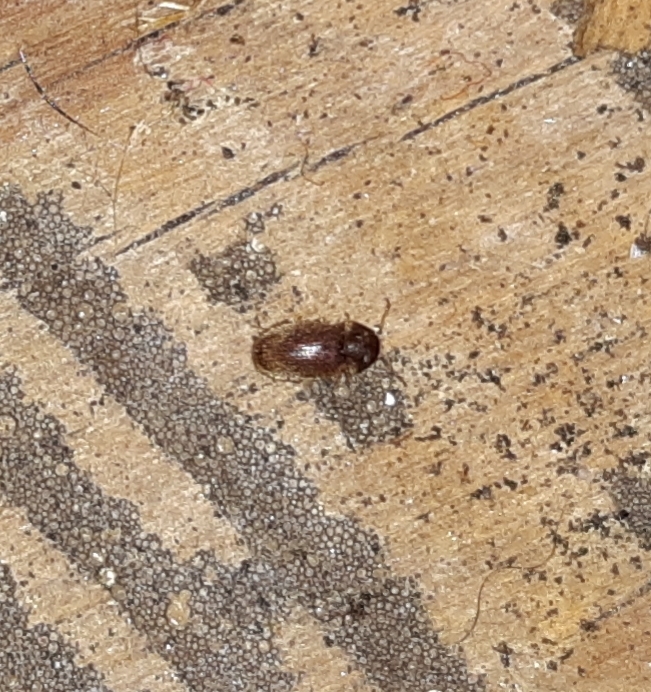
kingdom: Animalia
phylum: Arthropoda
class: Insecta
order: Coleoptera
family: Anobiidae
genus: Stegobium
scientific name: Stegobium paniceum
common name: Drugstore beetle
